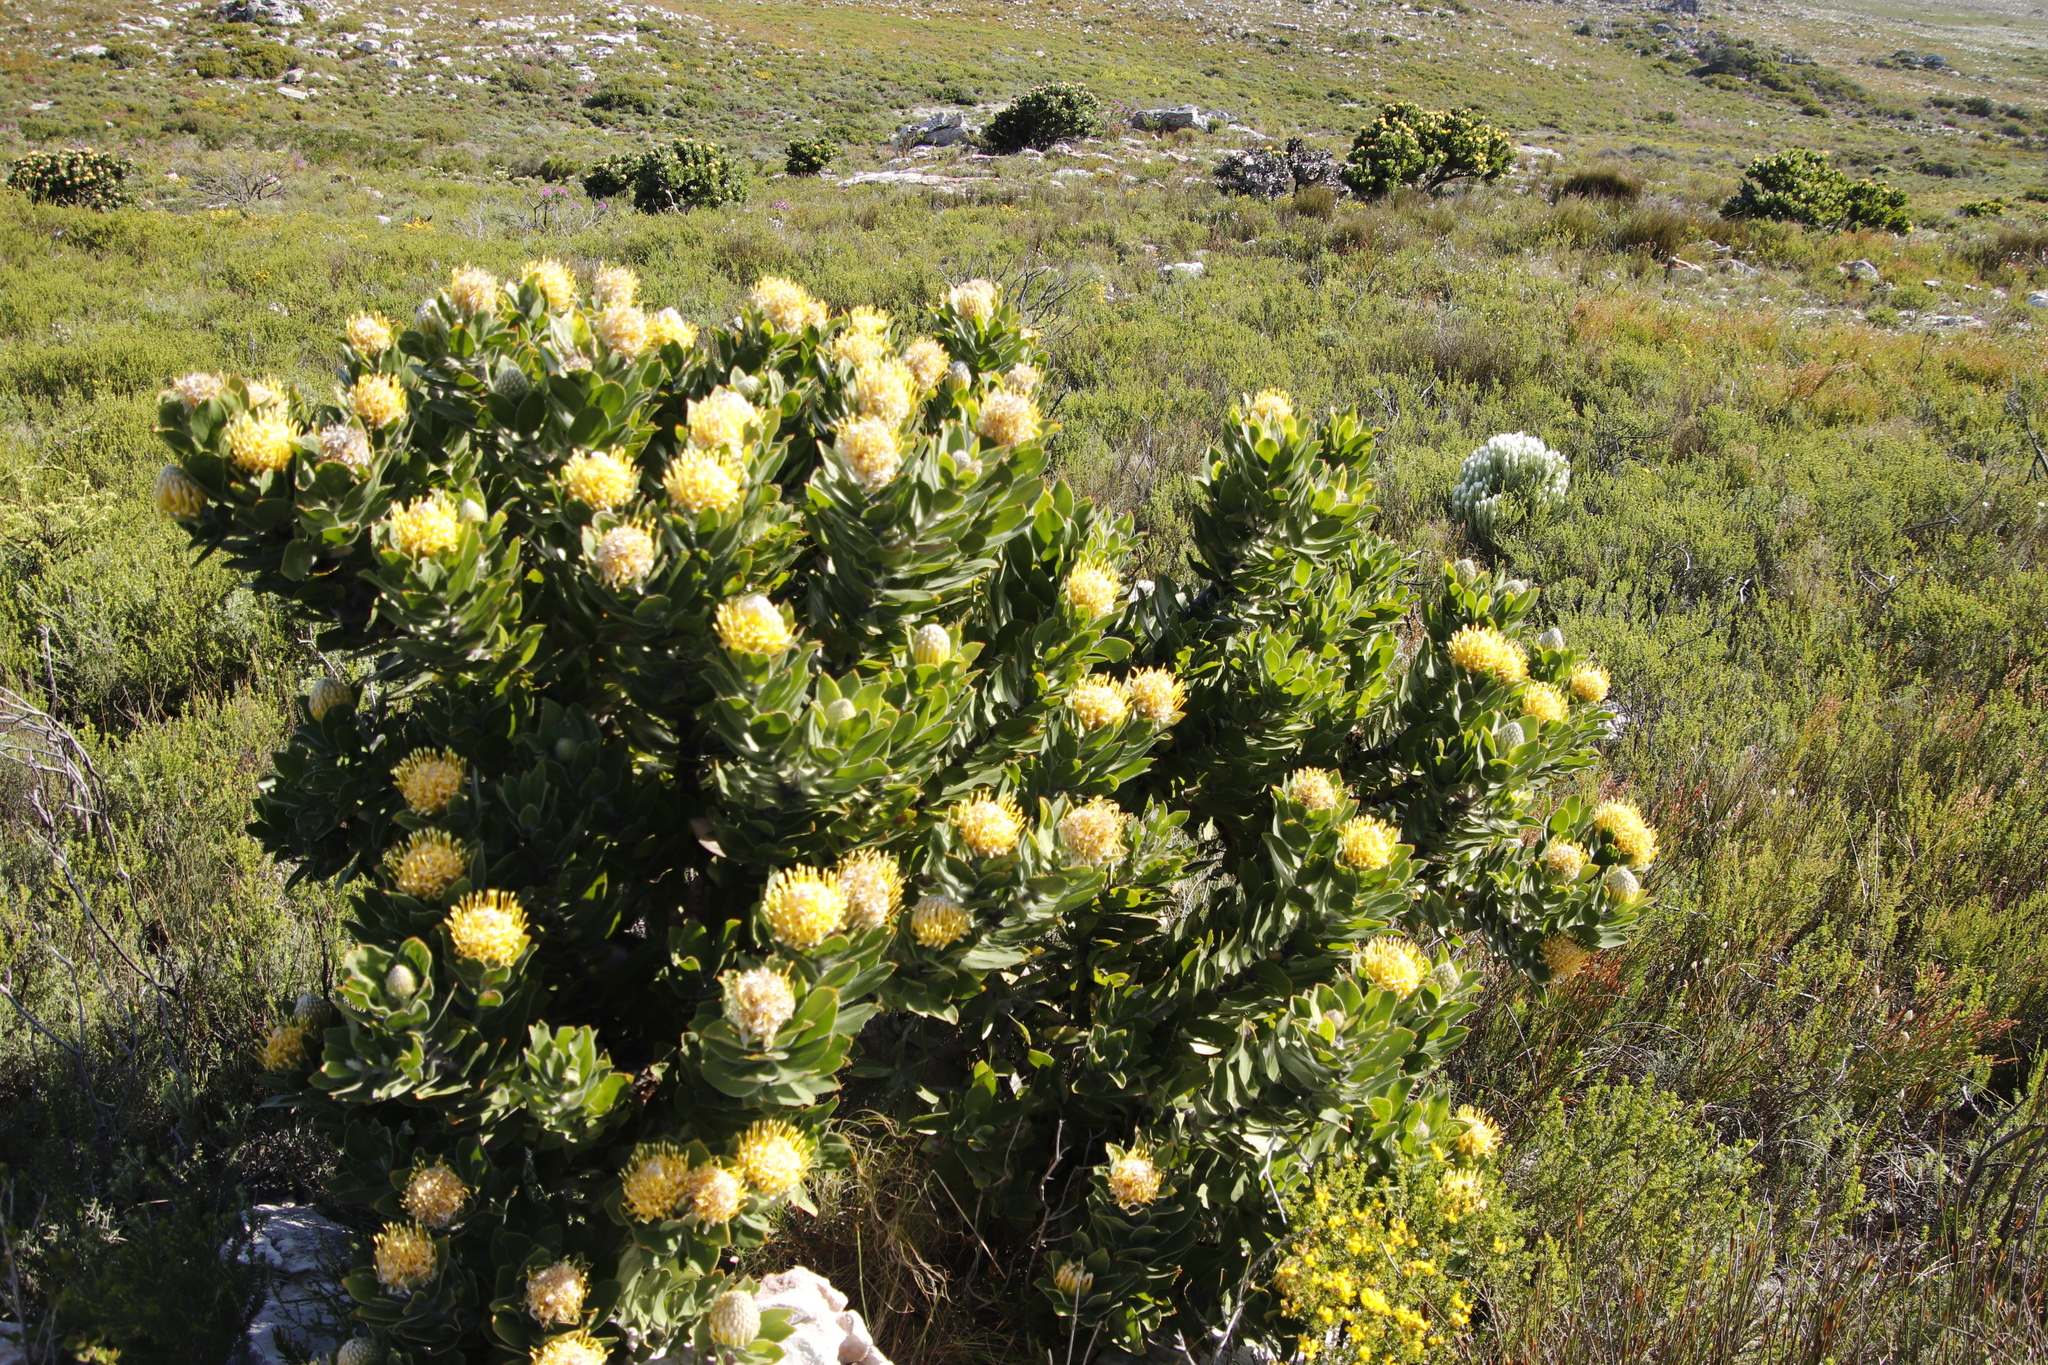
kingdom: Plantae
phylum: Tracheophyta
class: Magnoliopsida
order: Proteales
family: Proteaceae
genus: Leucospermum
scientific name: Leucospermum conocarpodendron
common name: Tree pincushion
